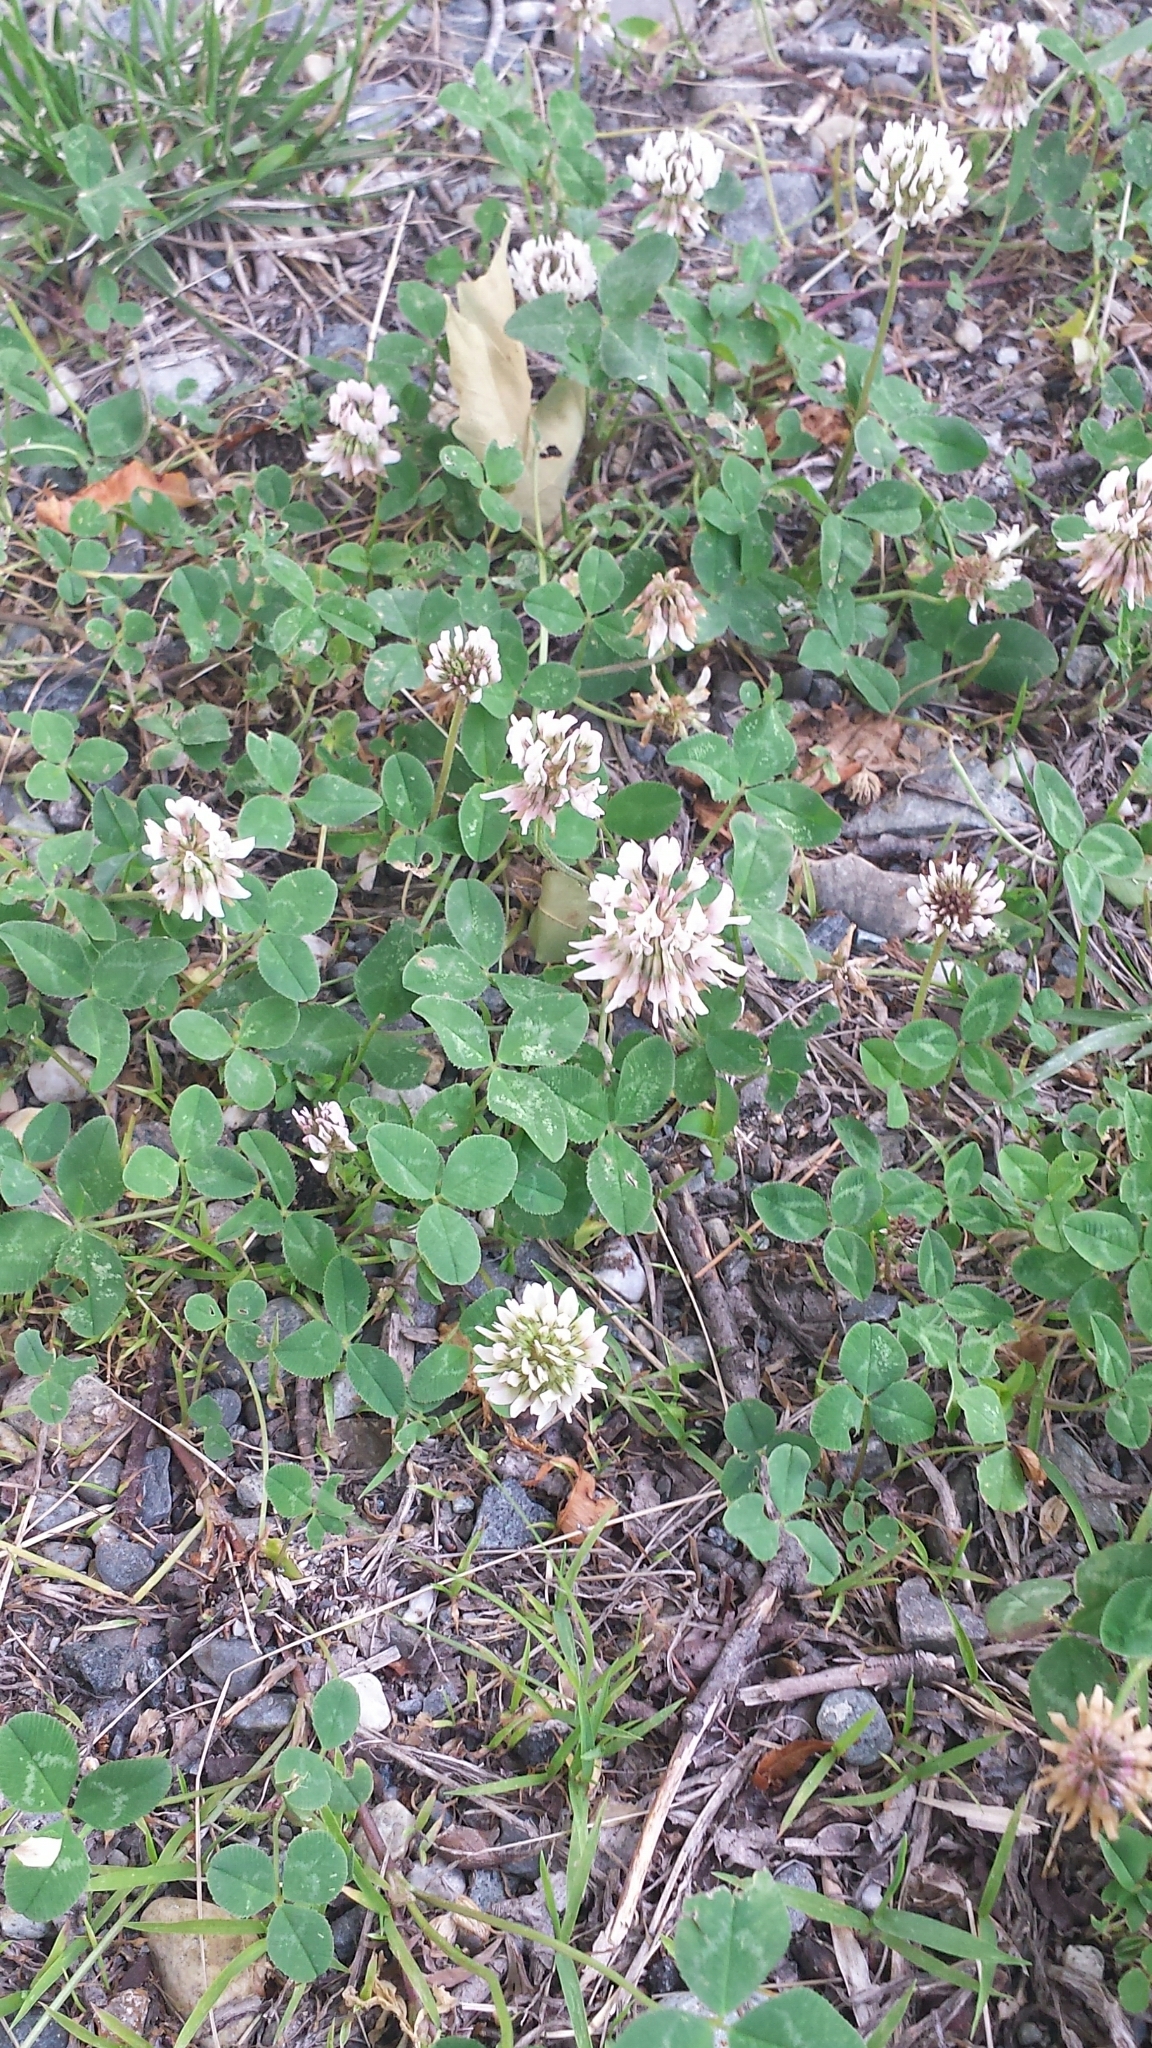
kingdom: Plantae
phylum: Tracheophyta
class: Magnoliopsida
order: Fabales
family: Fabaceae
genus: Trifolium
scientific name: Trifolium repens
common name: White clover
